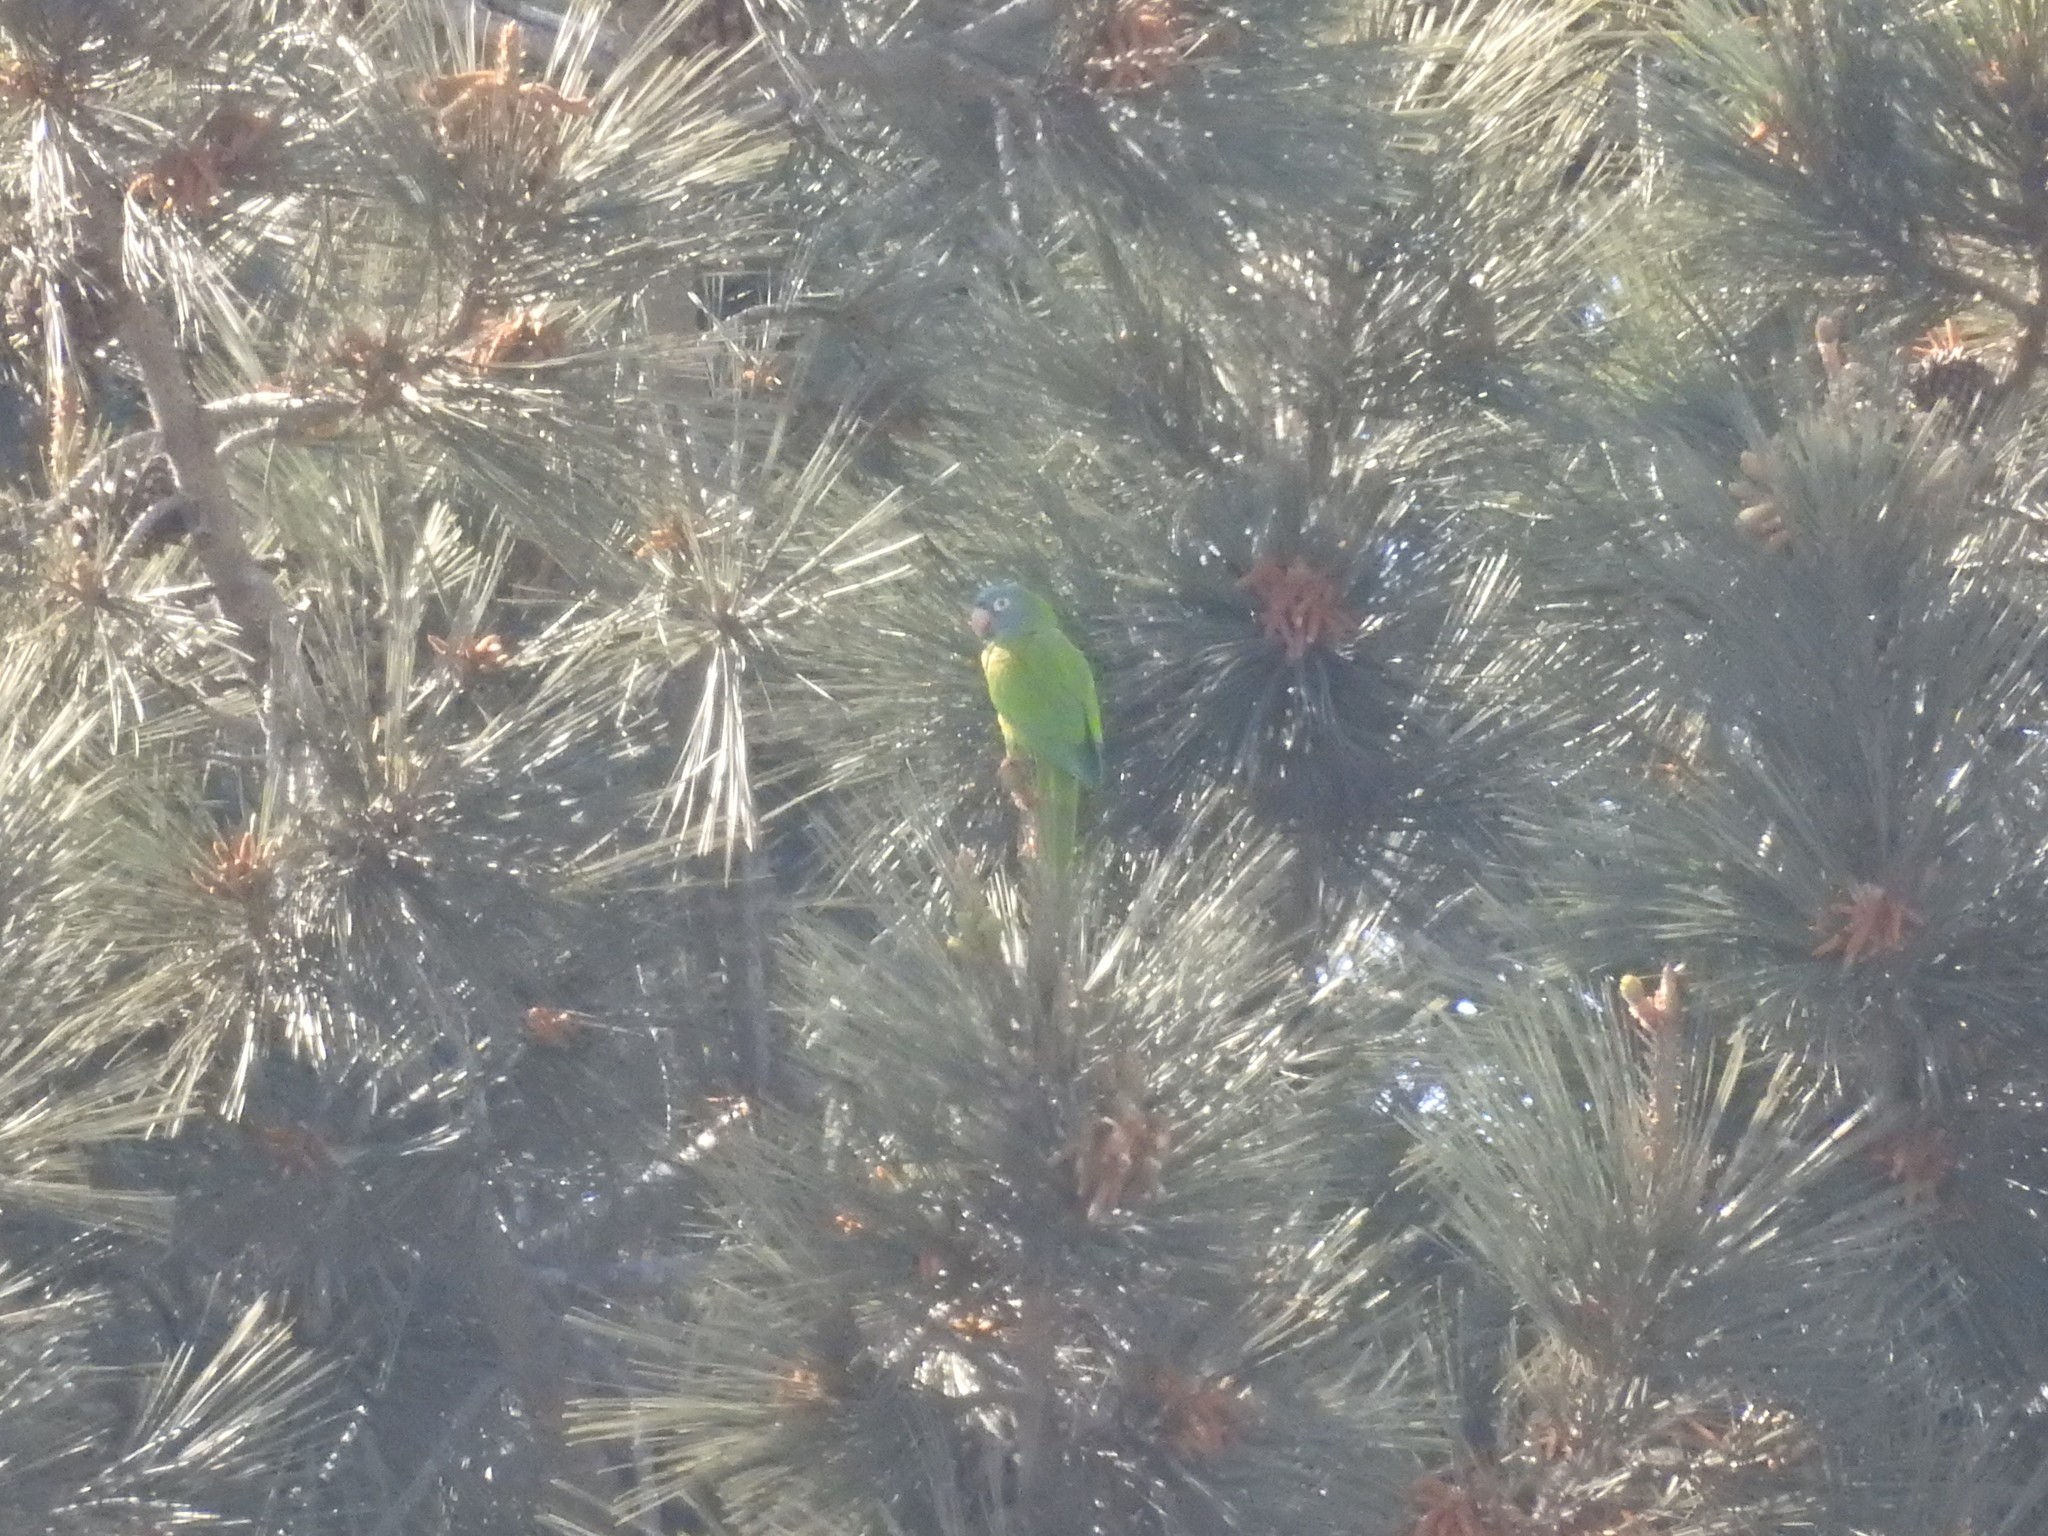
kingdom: Animalia
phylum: Chordata
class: Aves
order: Psittaciformes
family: Psittacidae
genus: Aratinga
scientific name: Aratinga acuticaudata
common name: Blue-crowned parakeet
